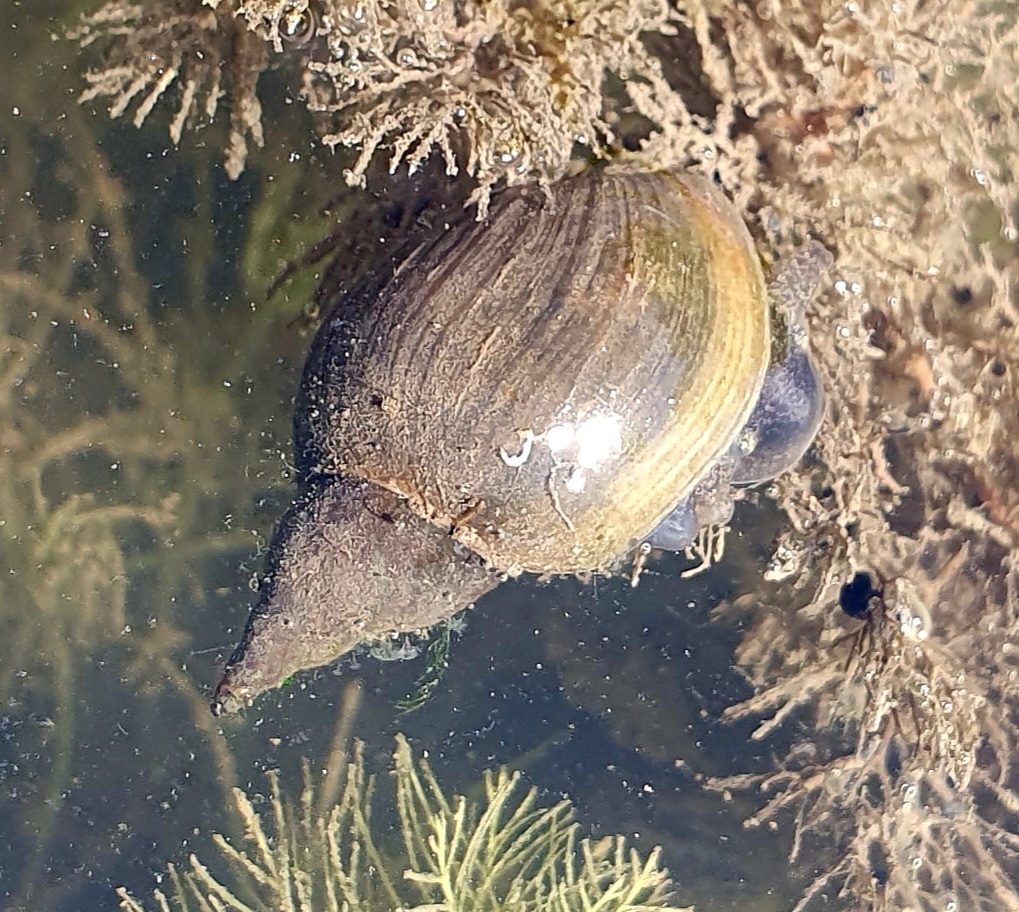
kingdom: Animalia
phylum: Mollusca
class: Gastropoda
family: Lymnaeidae
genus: Lymnaea
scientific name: Lymnaea stagnalis
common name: Great pond snail
